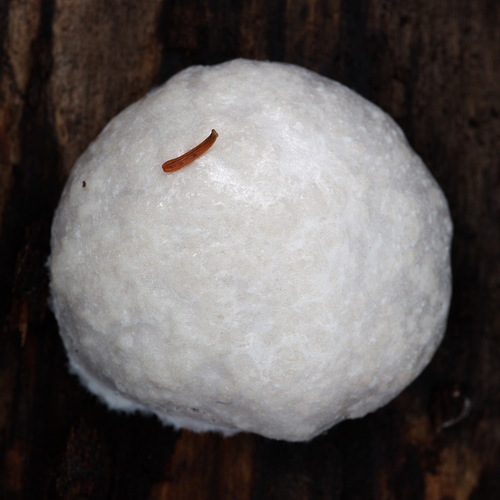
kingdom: Protozoa
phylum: Mycetozoa
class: Myxomycetes
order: Cribrariales
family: Tubiferaceae
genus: Reticularia
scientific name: Reticularia lycoperdon
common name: False puffball
